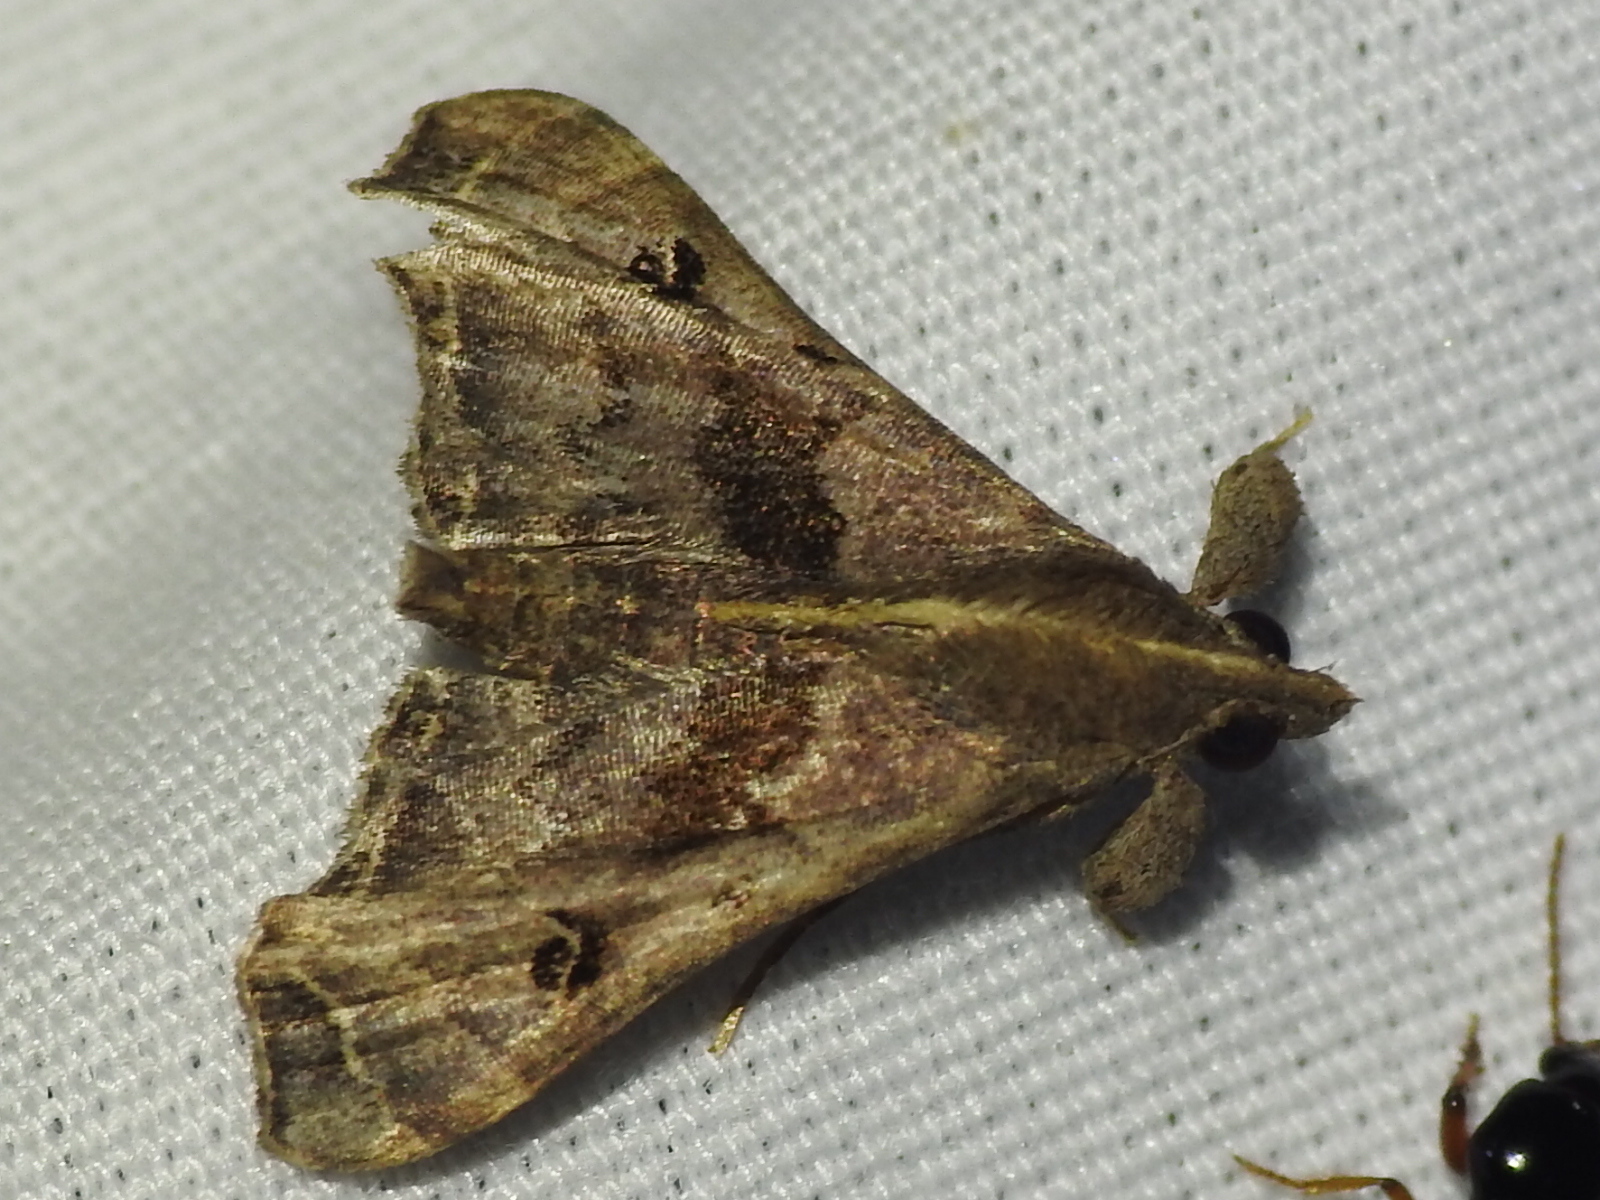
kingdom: Animalia
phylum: Arthropoda
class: Insecta
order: Lepidoptera
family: Erebidae
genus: Palthis
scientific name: Palthis asopialis
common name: Faint-spotted palthis moth
